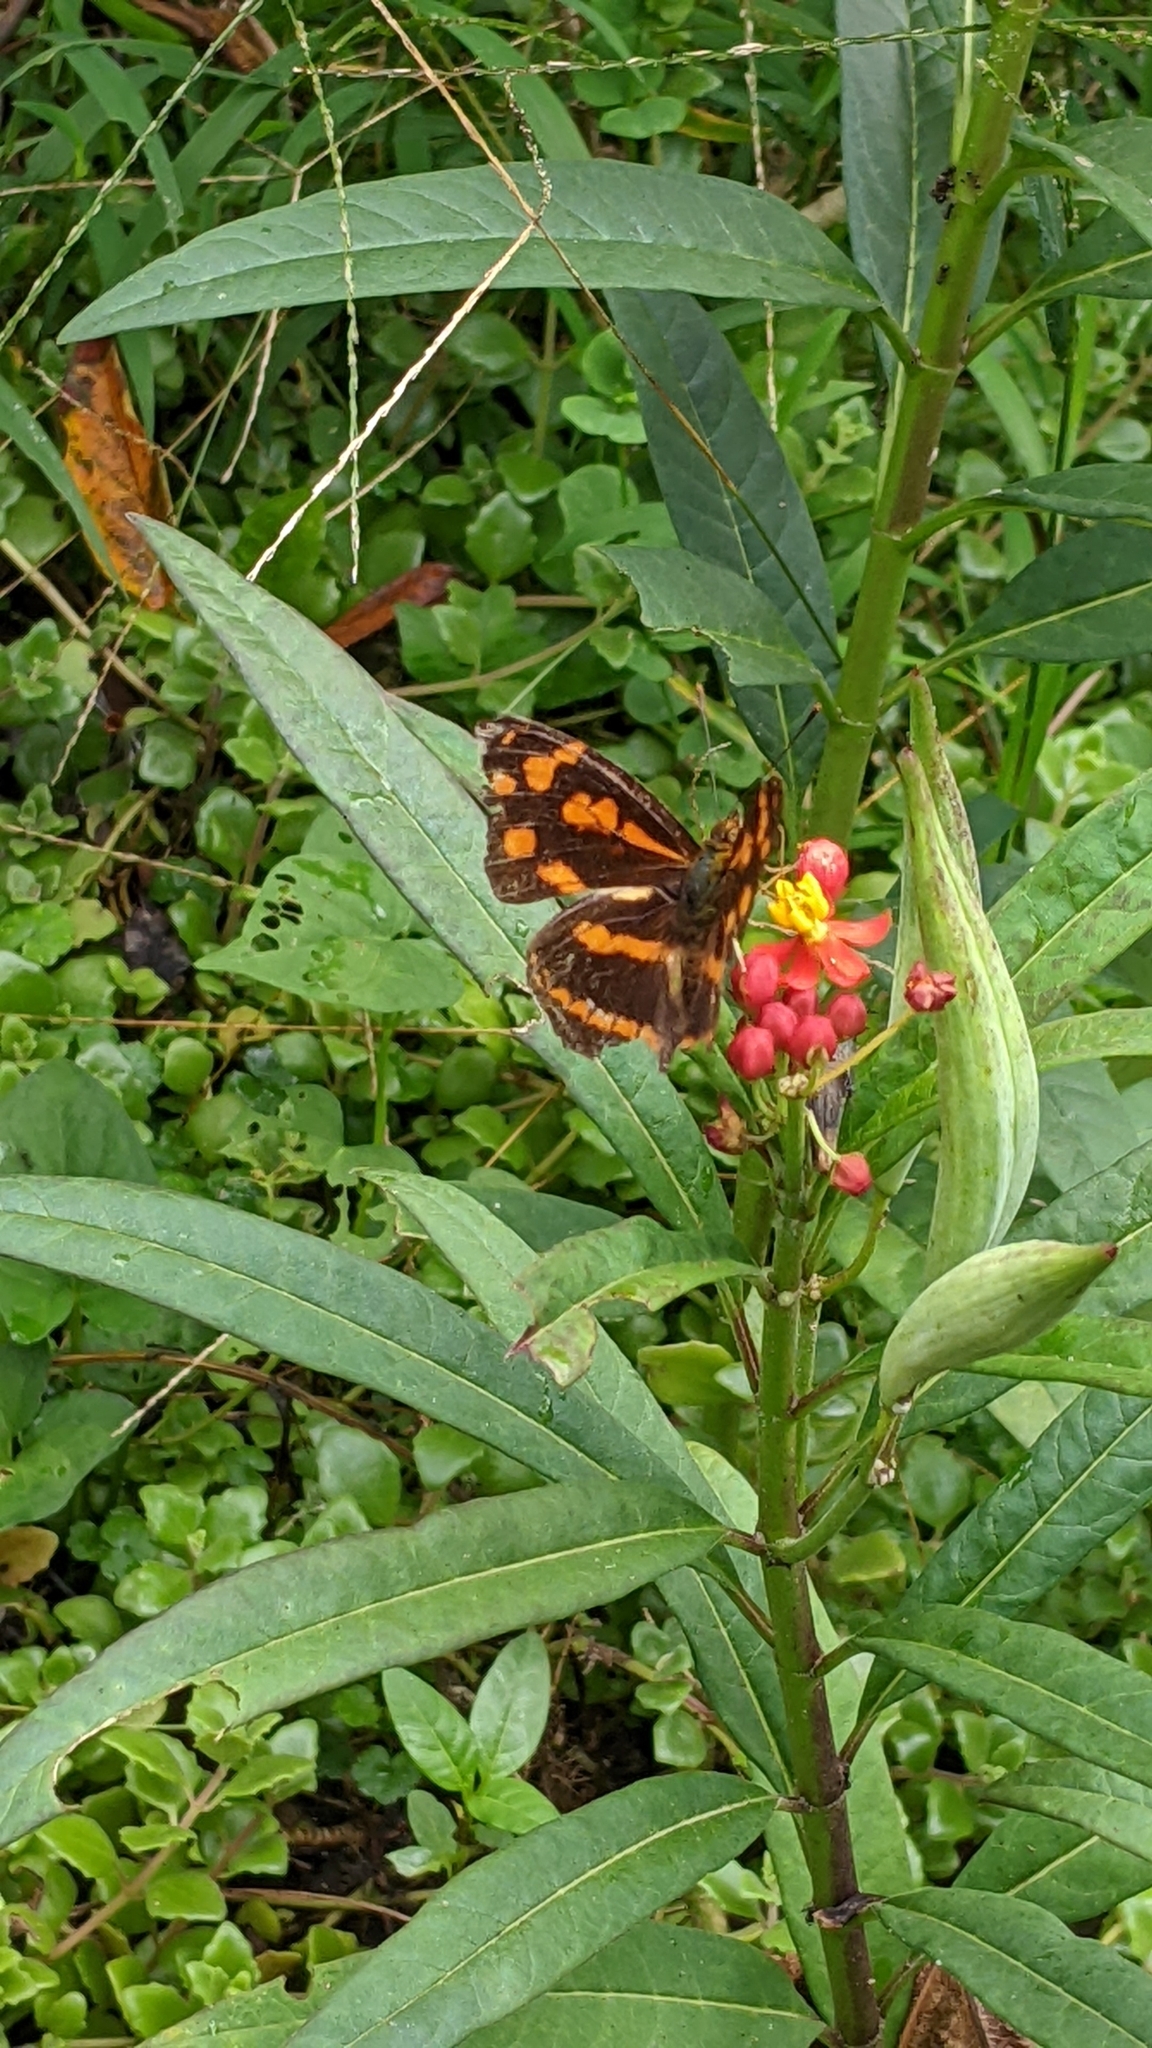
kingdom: Animalia
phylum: Arthropoda
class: Insecta
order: Lepidoptera
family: Nymphalidae
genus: Symbrenthia
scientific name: Symbrenthia hypselis
